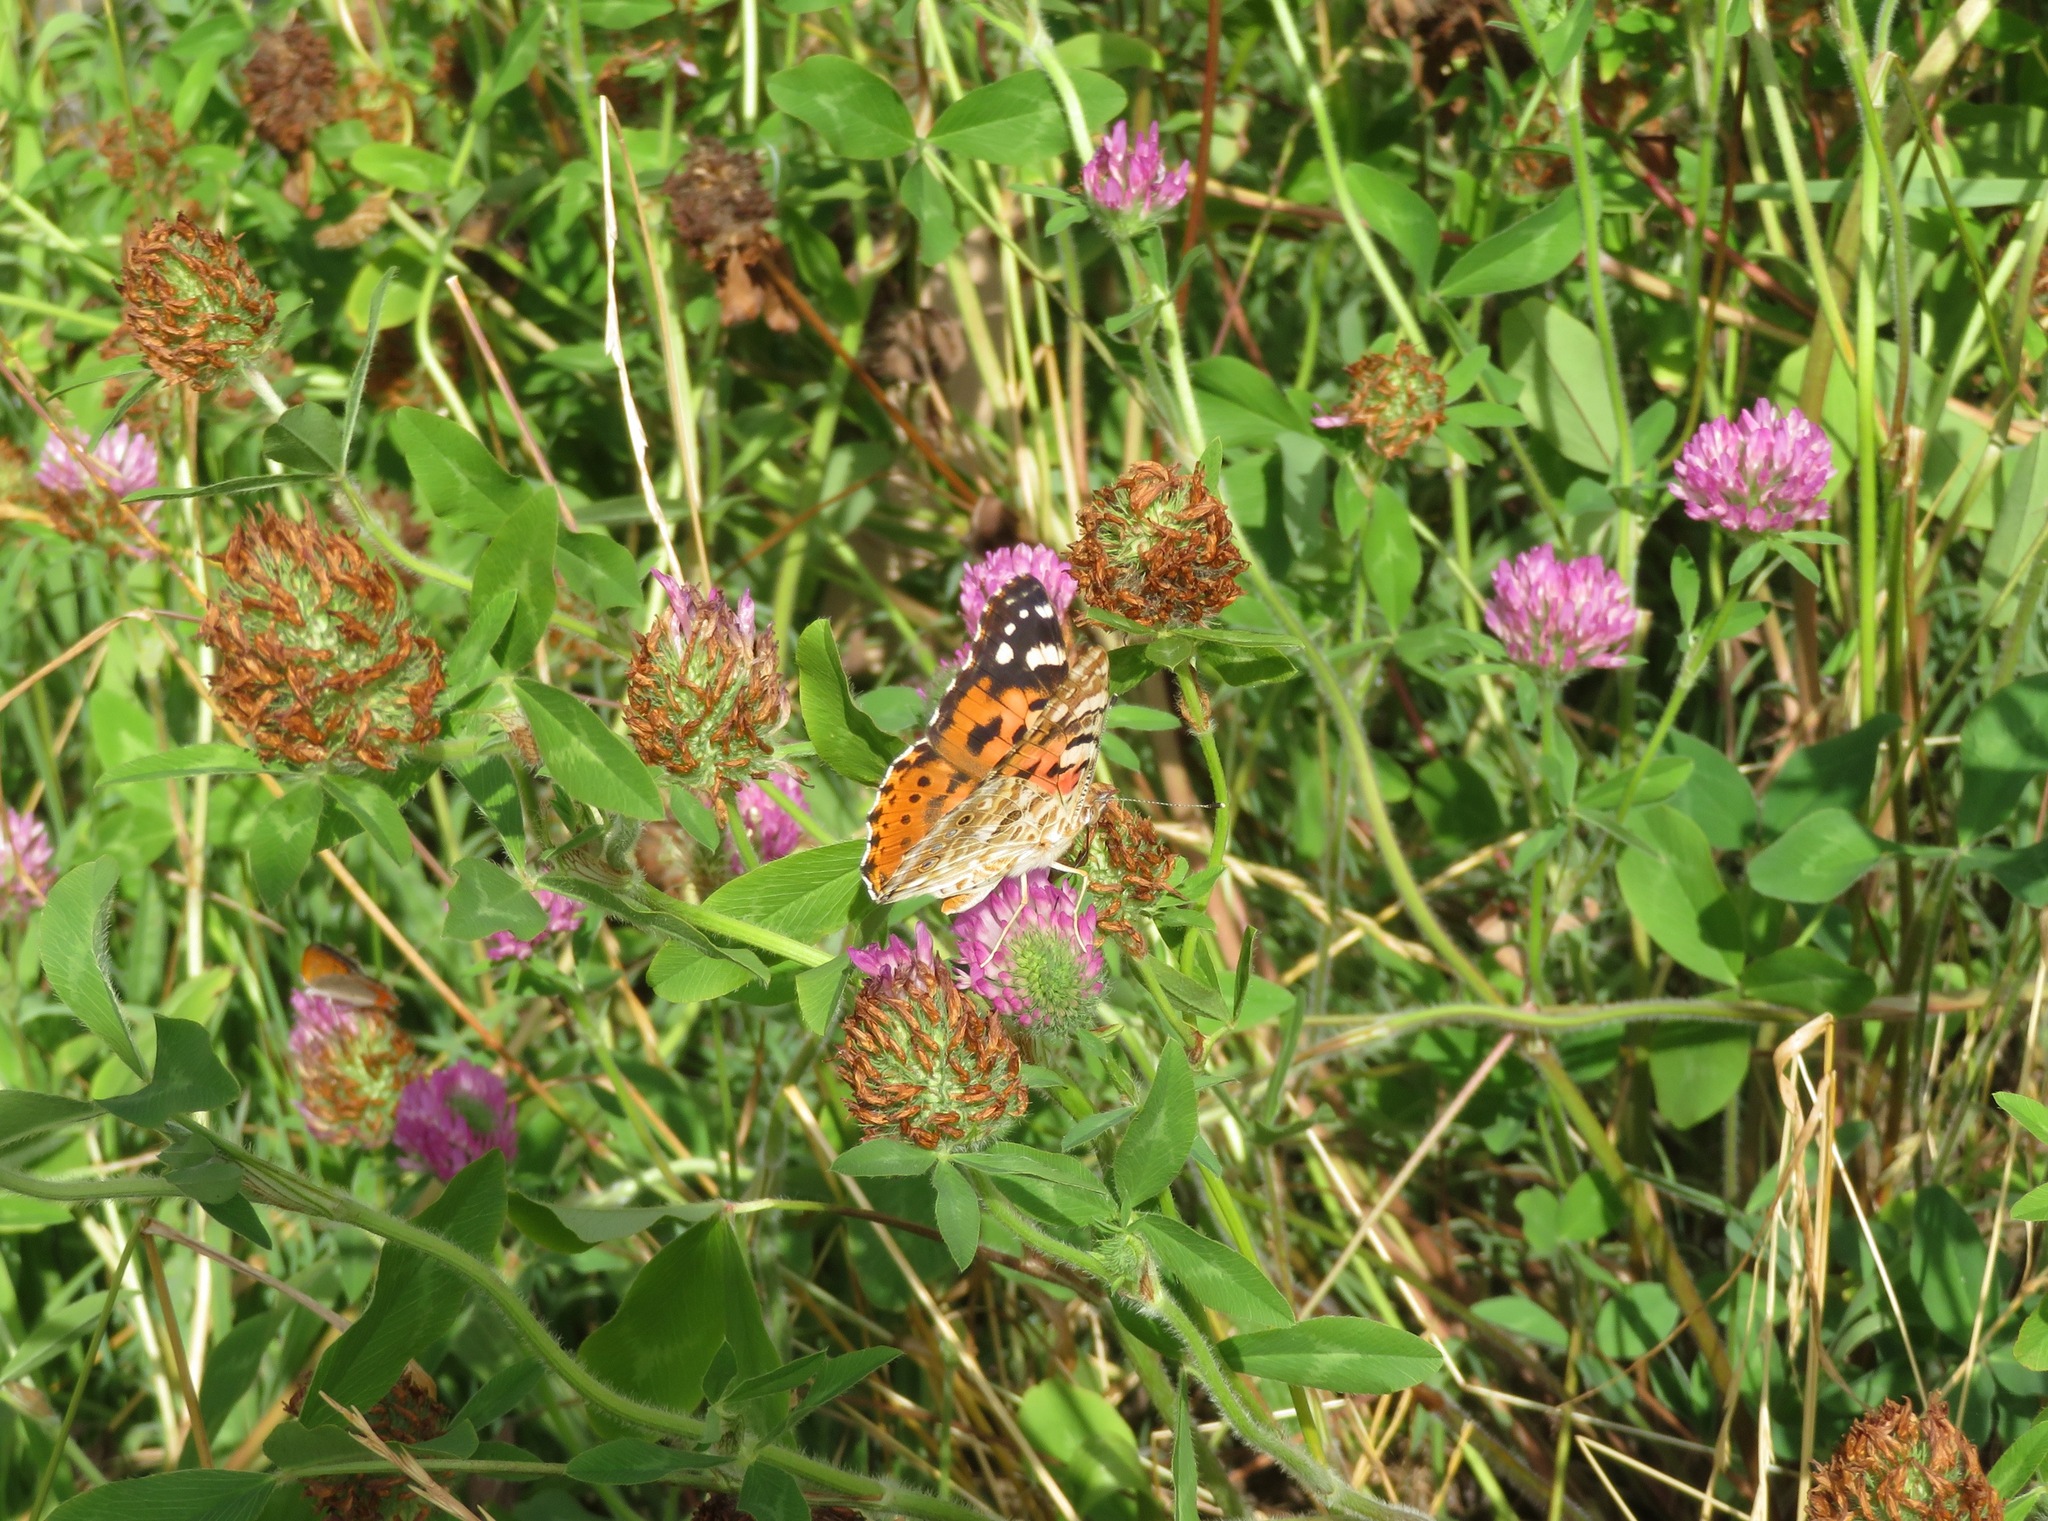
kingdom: Animalia
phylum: Arthropoda
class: Insecta
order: Lepidoptera
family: Nymphalidae
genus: Vanessa
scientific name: Vanessa cardui
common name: Painted lady
